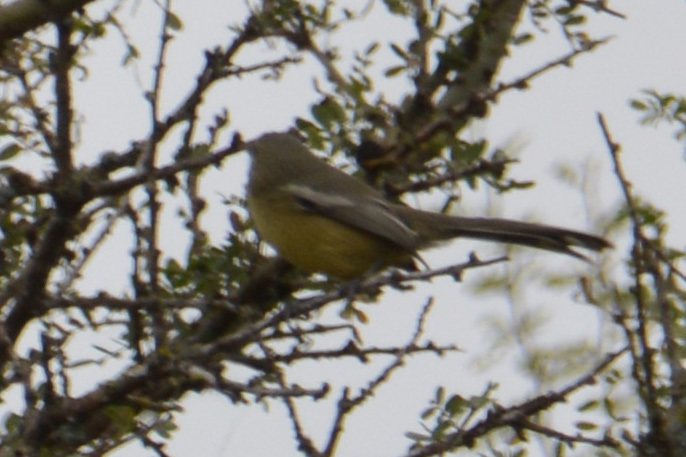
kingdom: Animalia
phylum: Chordata
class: Aves
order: Passeriformes
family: Tyrannidae
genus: Stigmatura
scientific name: Stigmatura budytoides
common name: Greater wagtail-tyrant
